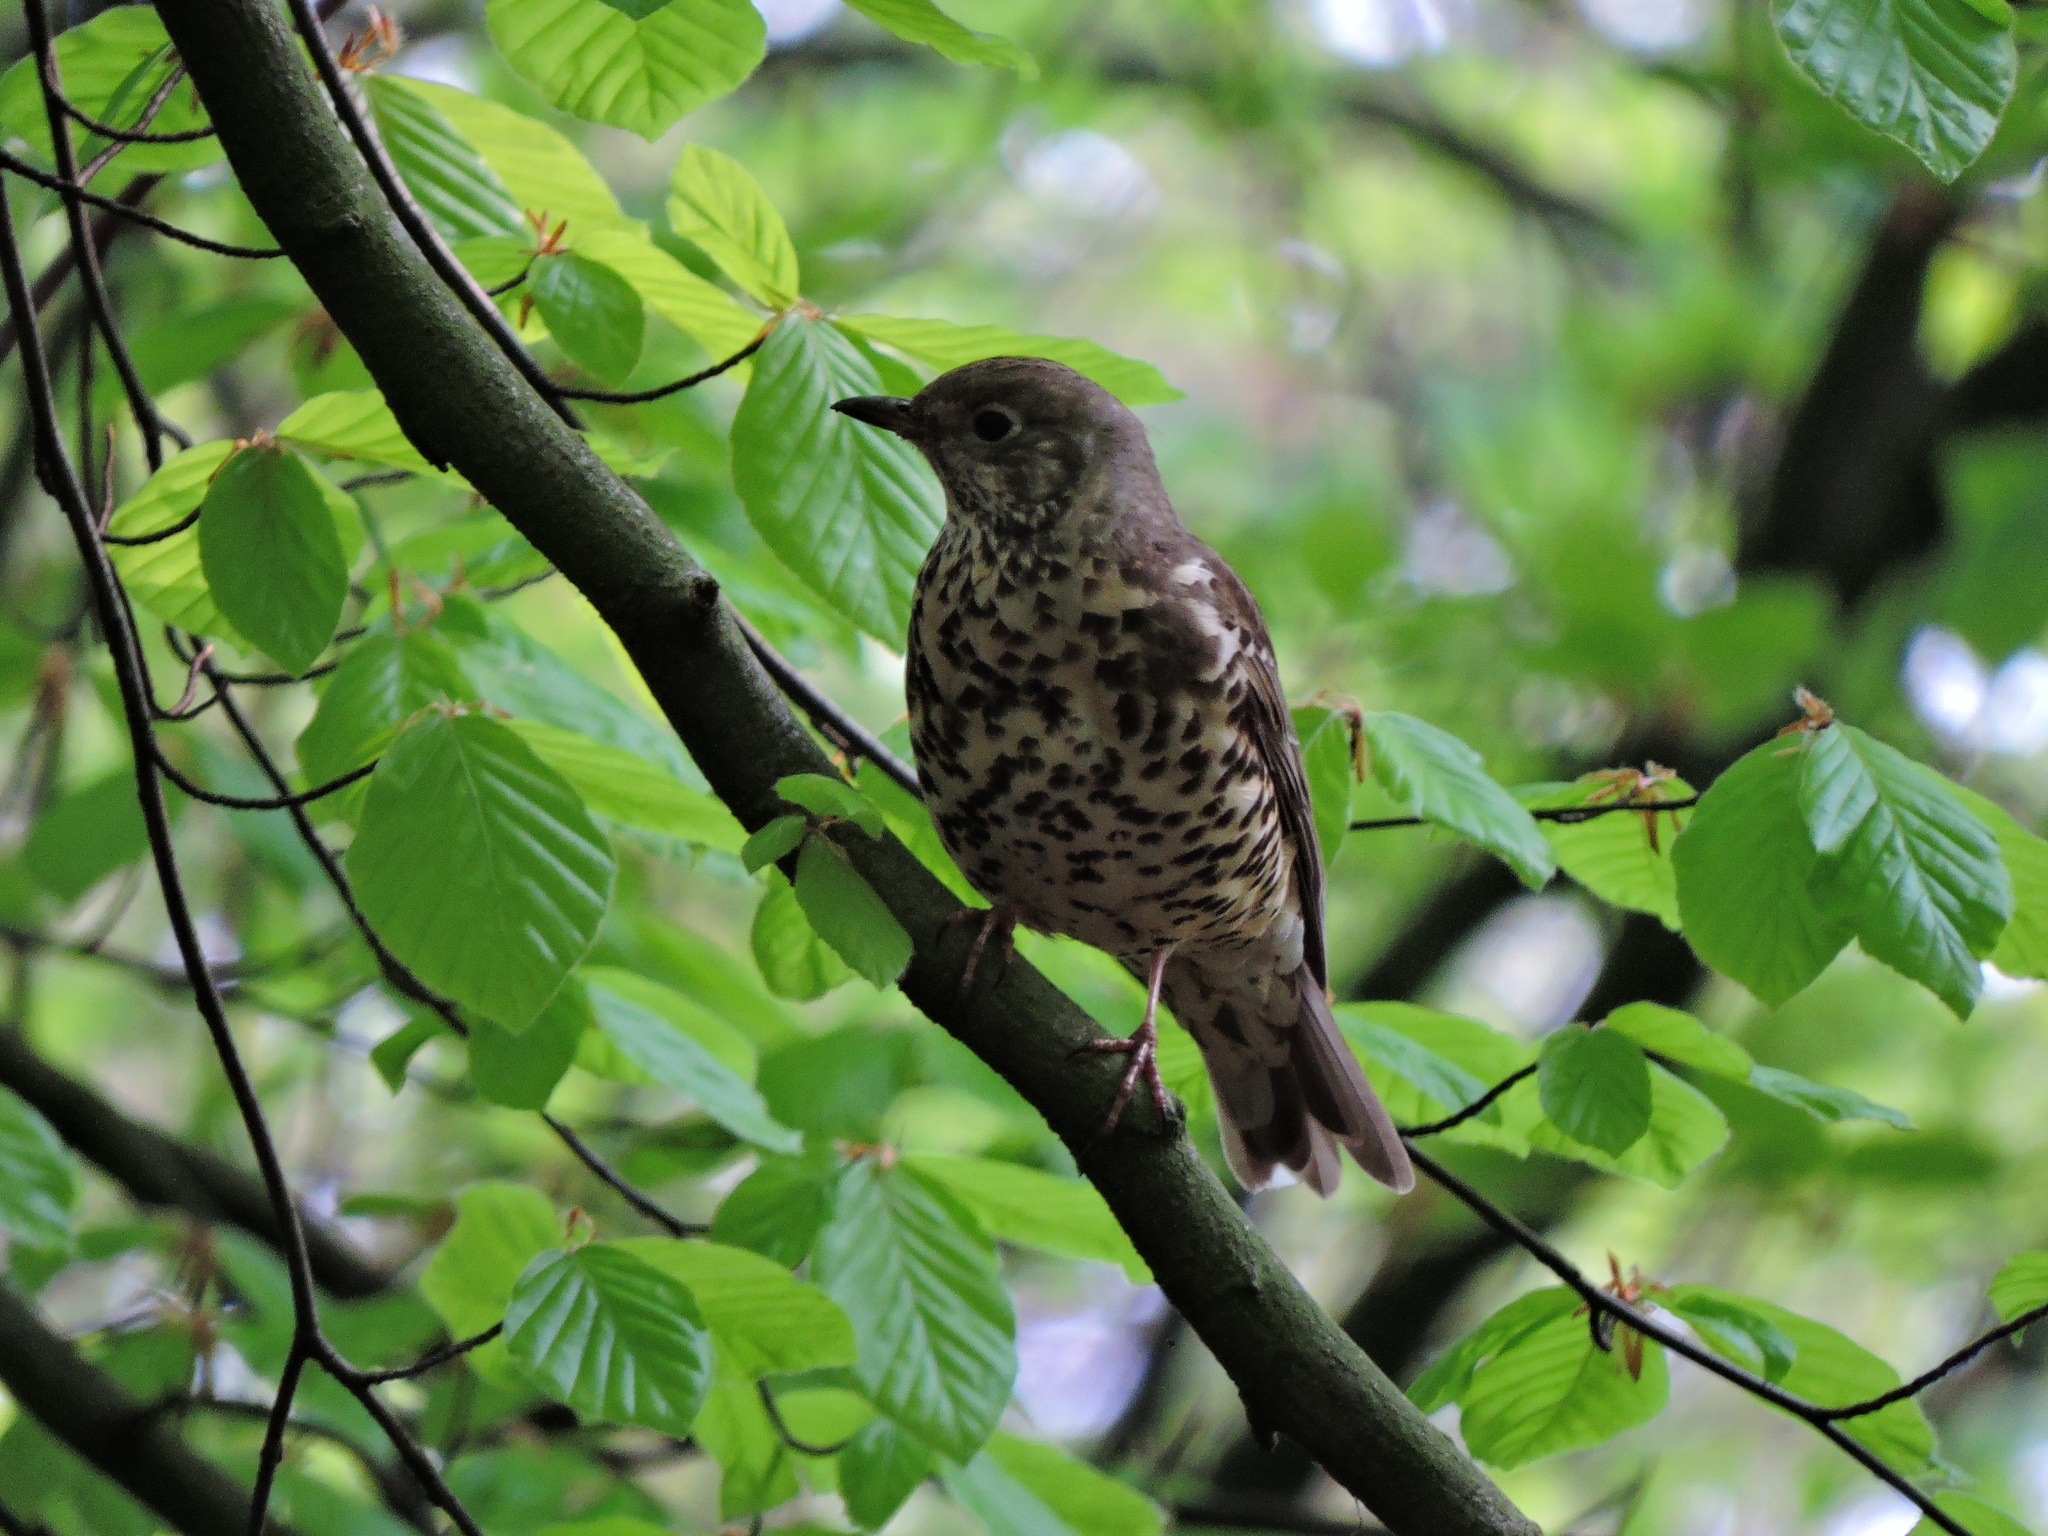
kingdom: Animalia
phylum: Chordata
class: Aves
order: Passeriformes
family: Turdidae
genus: Turdus
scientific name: Turdus viscivorus
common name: Mistle thrush
